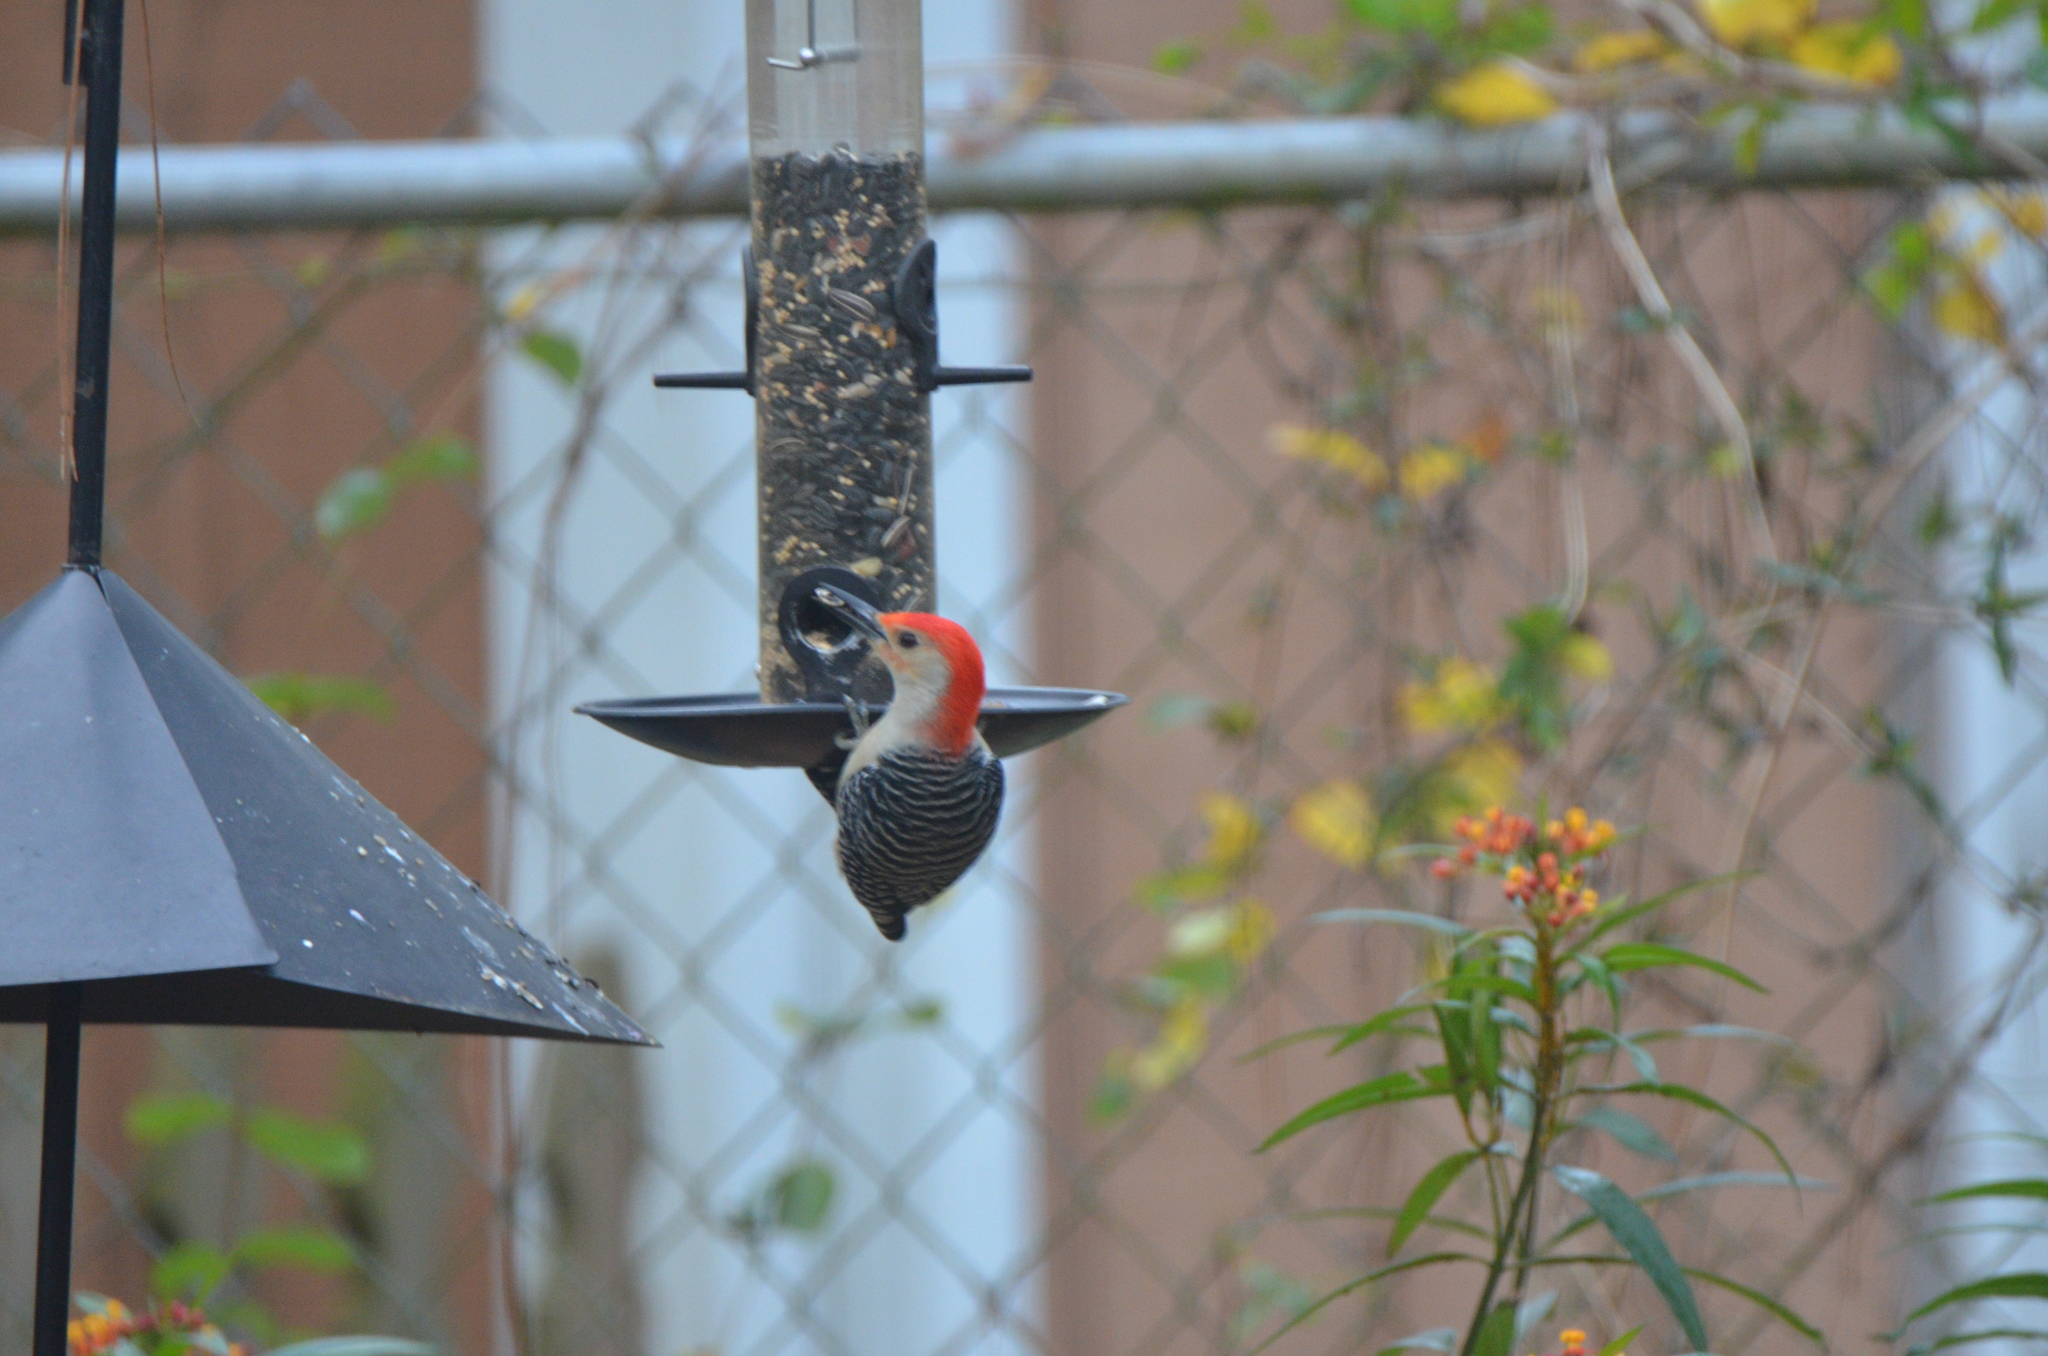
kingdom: Animalia
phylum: Chordata
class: Aves
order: Piciformes
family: Picidae
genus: Melanerpes
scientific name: Melanerpes carolinus
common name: Red-bellied woodpecker
